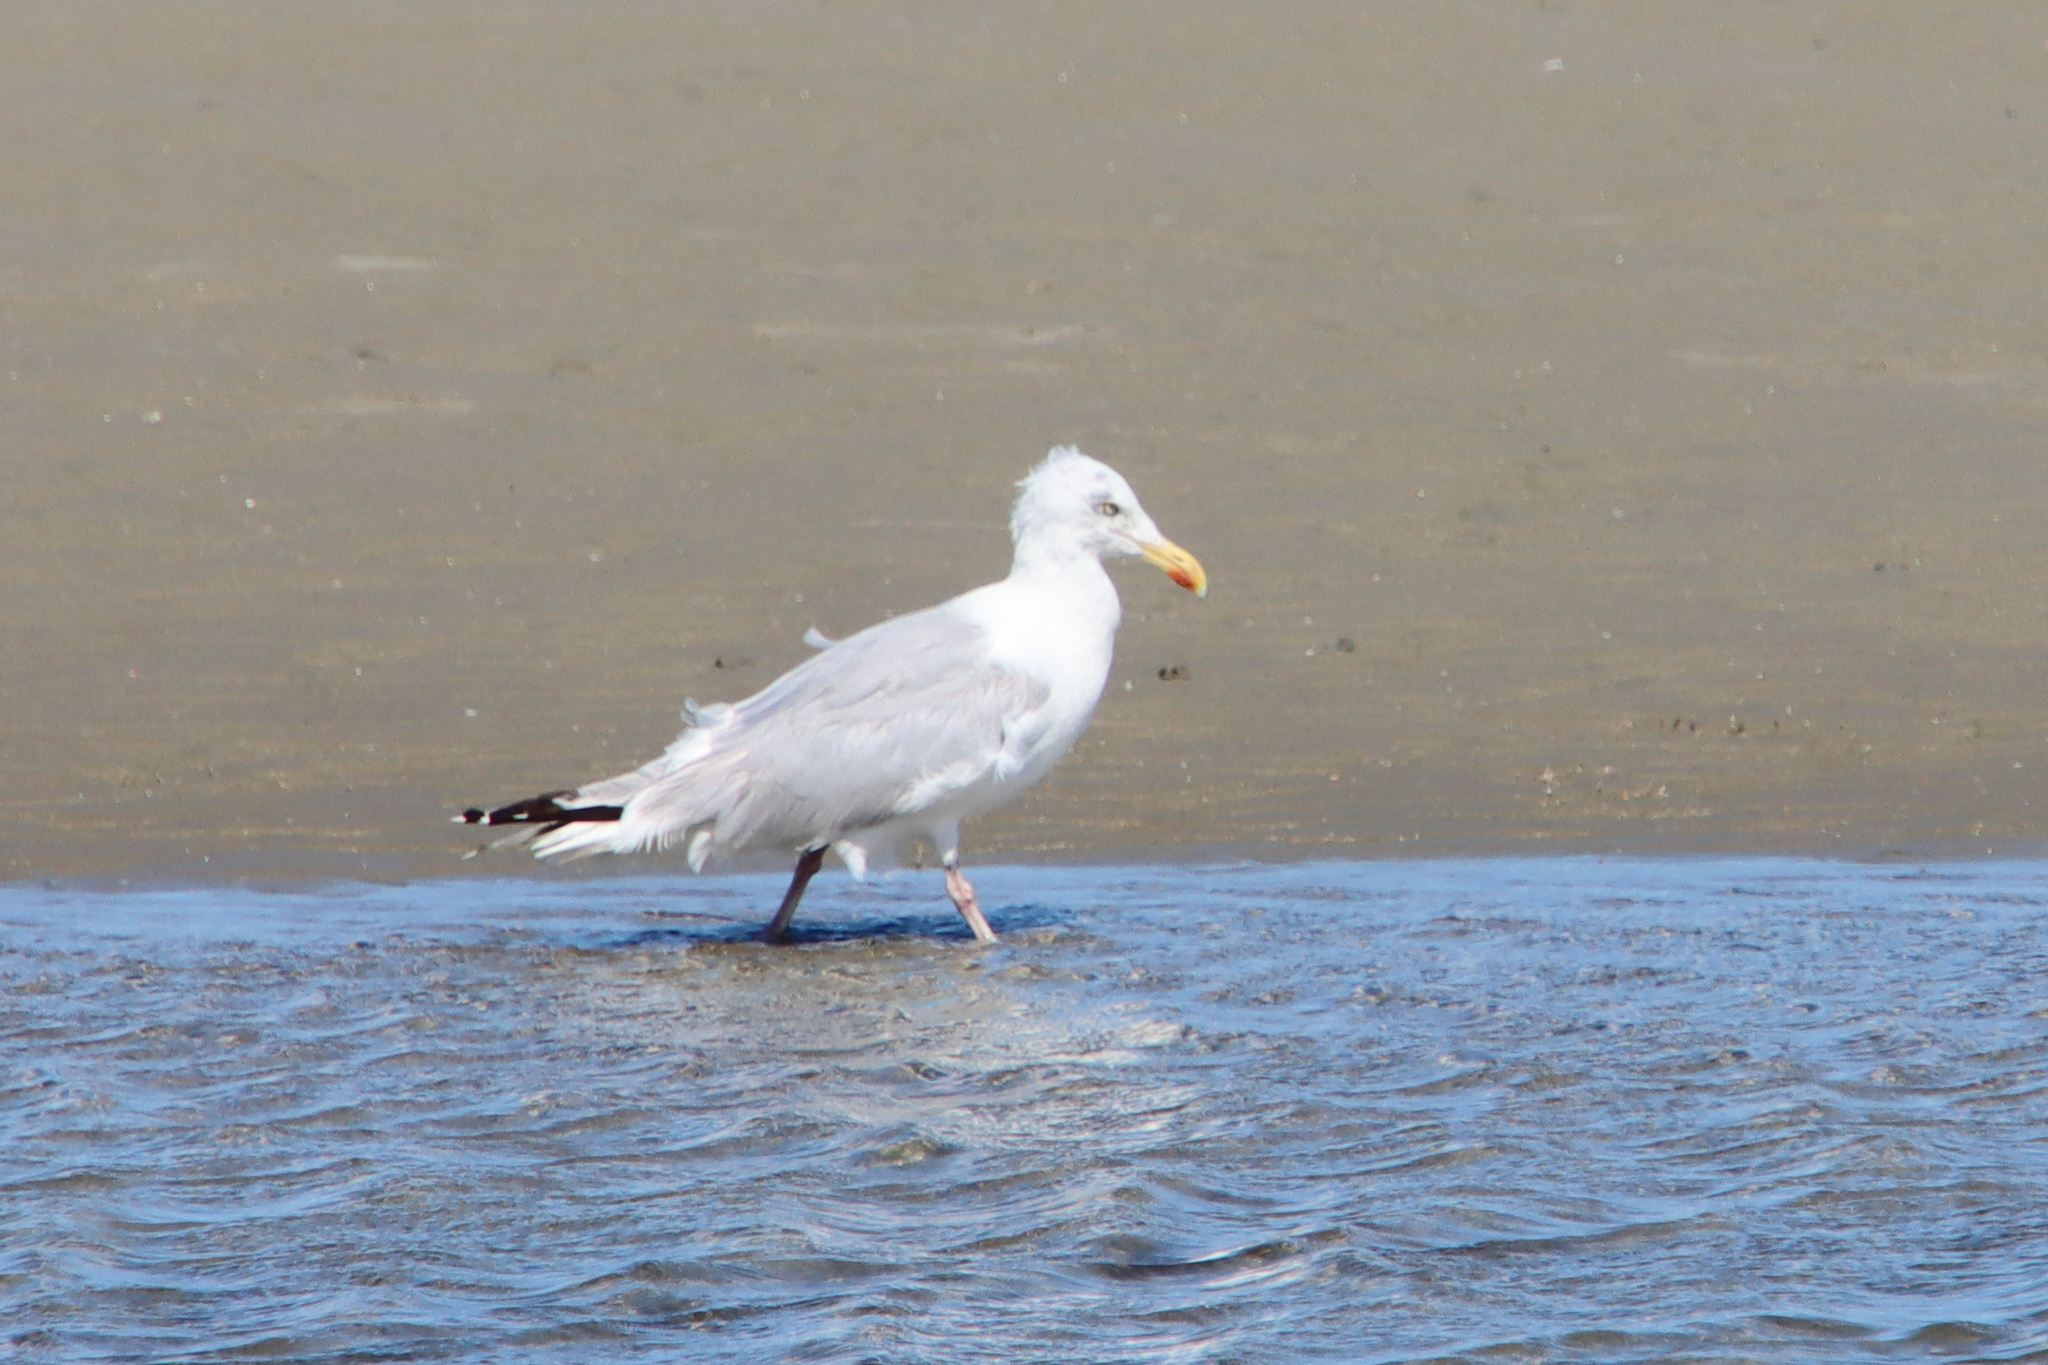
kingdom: Animalia
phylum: Chordata
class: Aves
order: Charadriiformes
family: Laridae
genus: Larus
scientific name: Larus argentatus
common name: Herring gull
